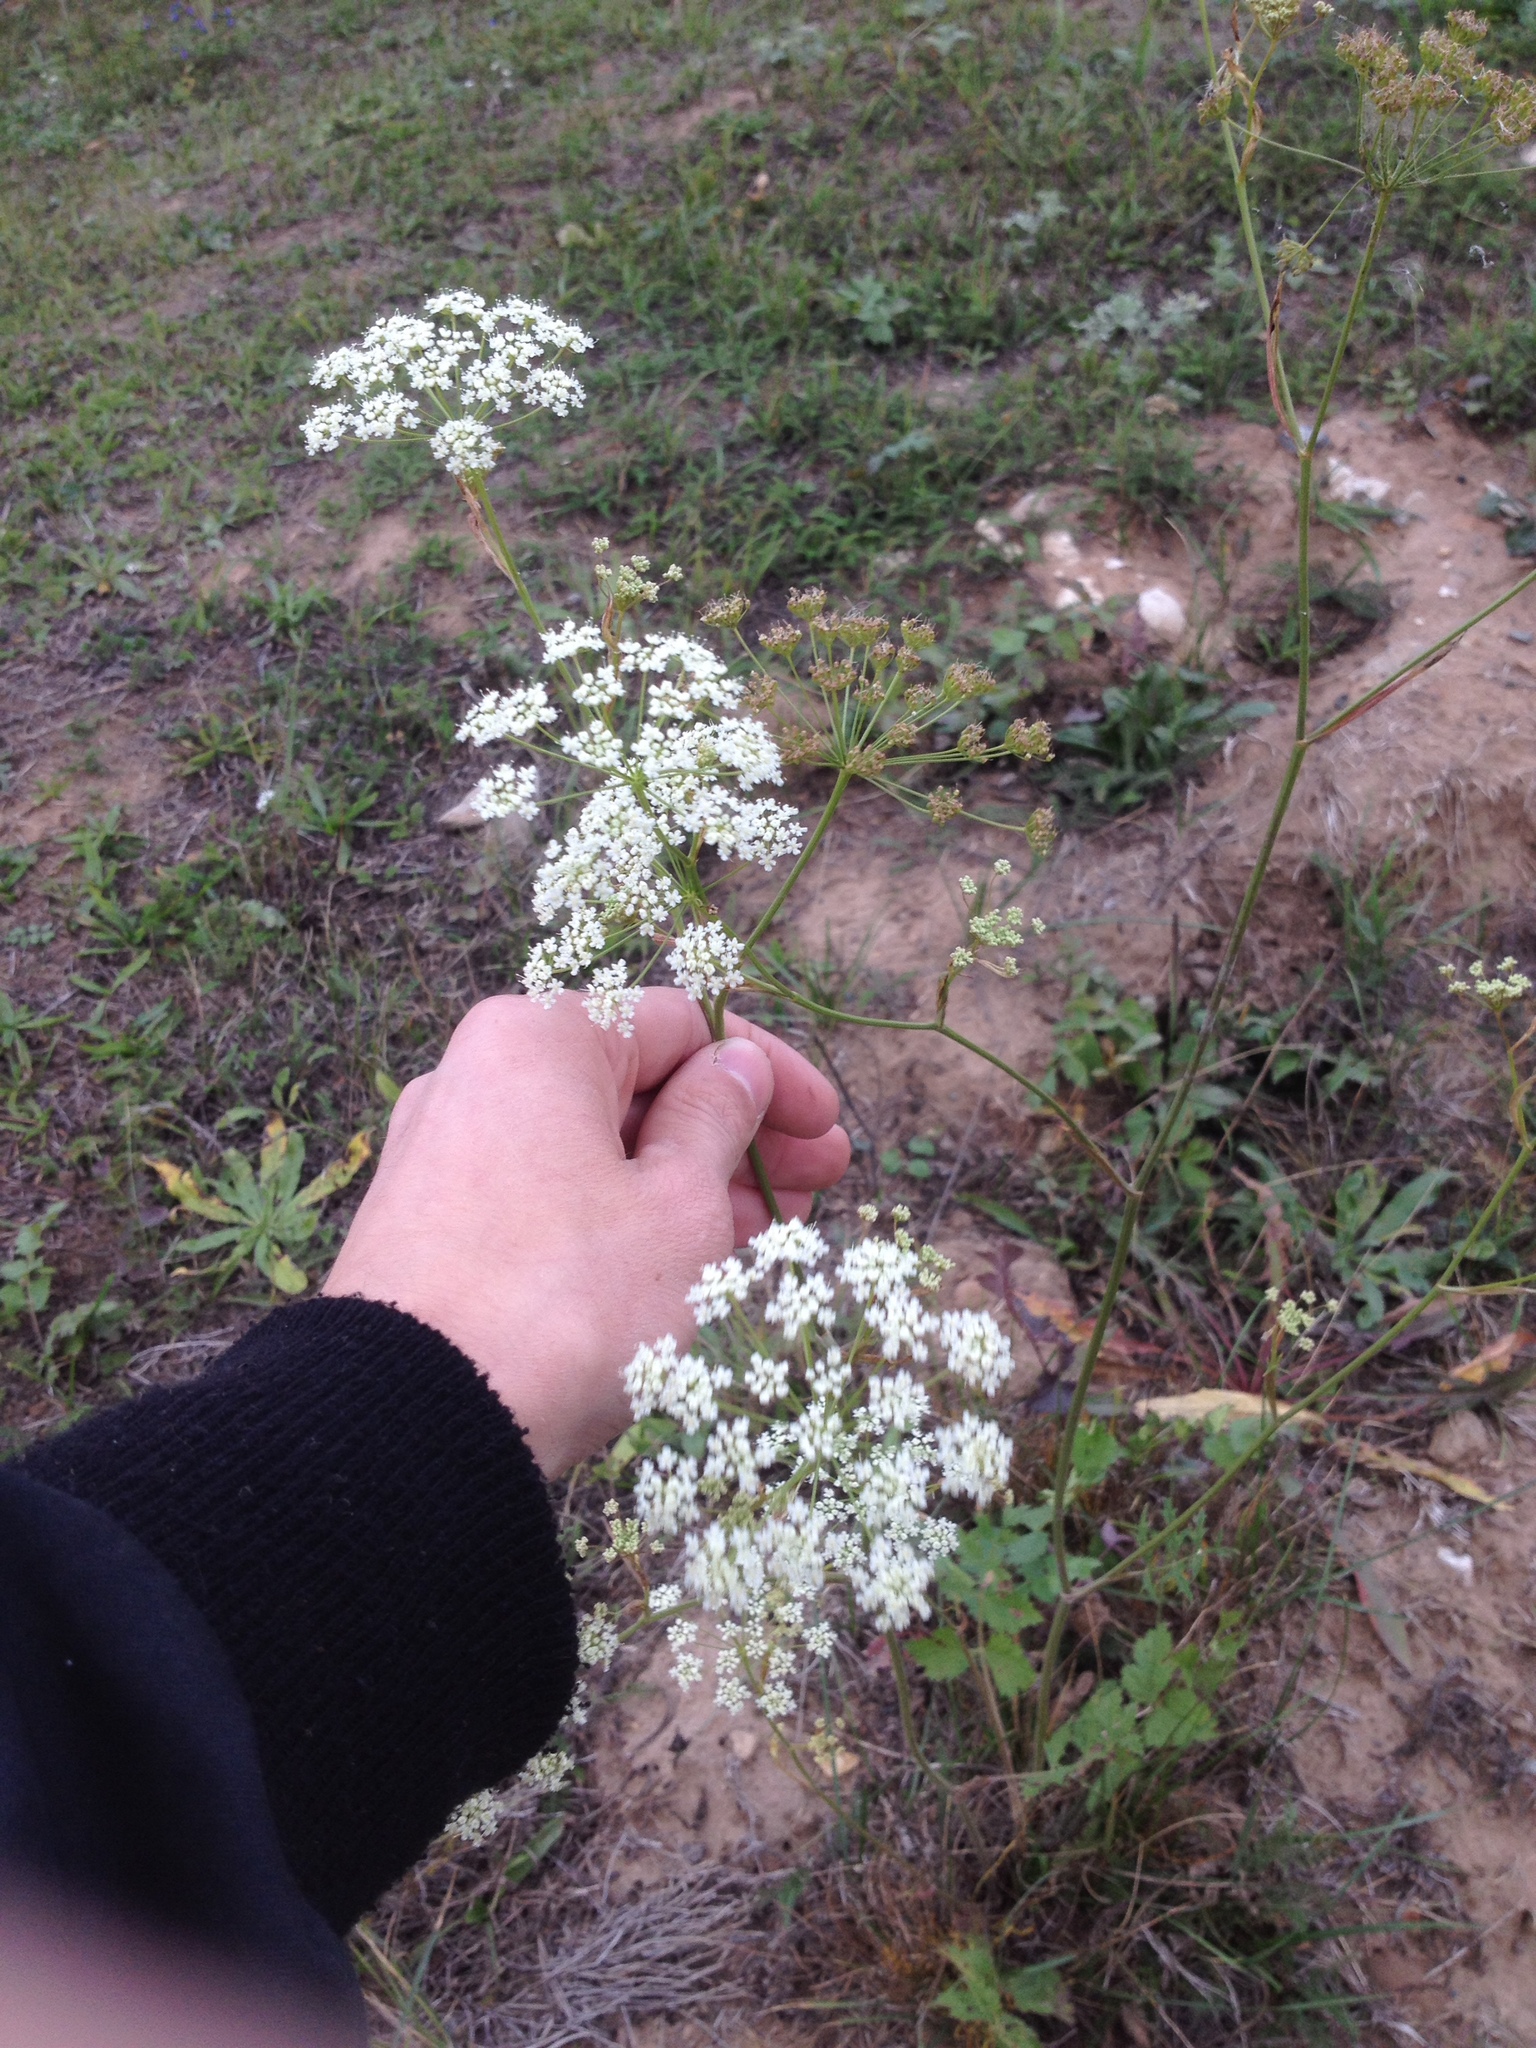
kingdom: Plantae
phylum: Tracheophyta
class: Magnoliopsida
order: Apiales
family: Apiaceae
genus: Pimpinella
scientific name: Pimpinella saxifraga
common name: Burnet-saxifrage
